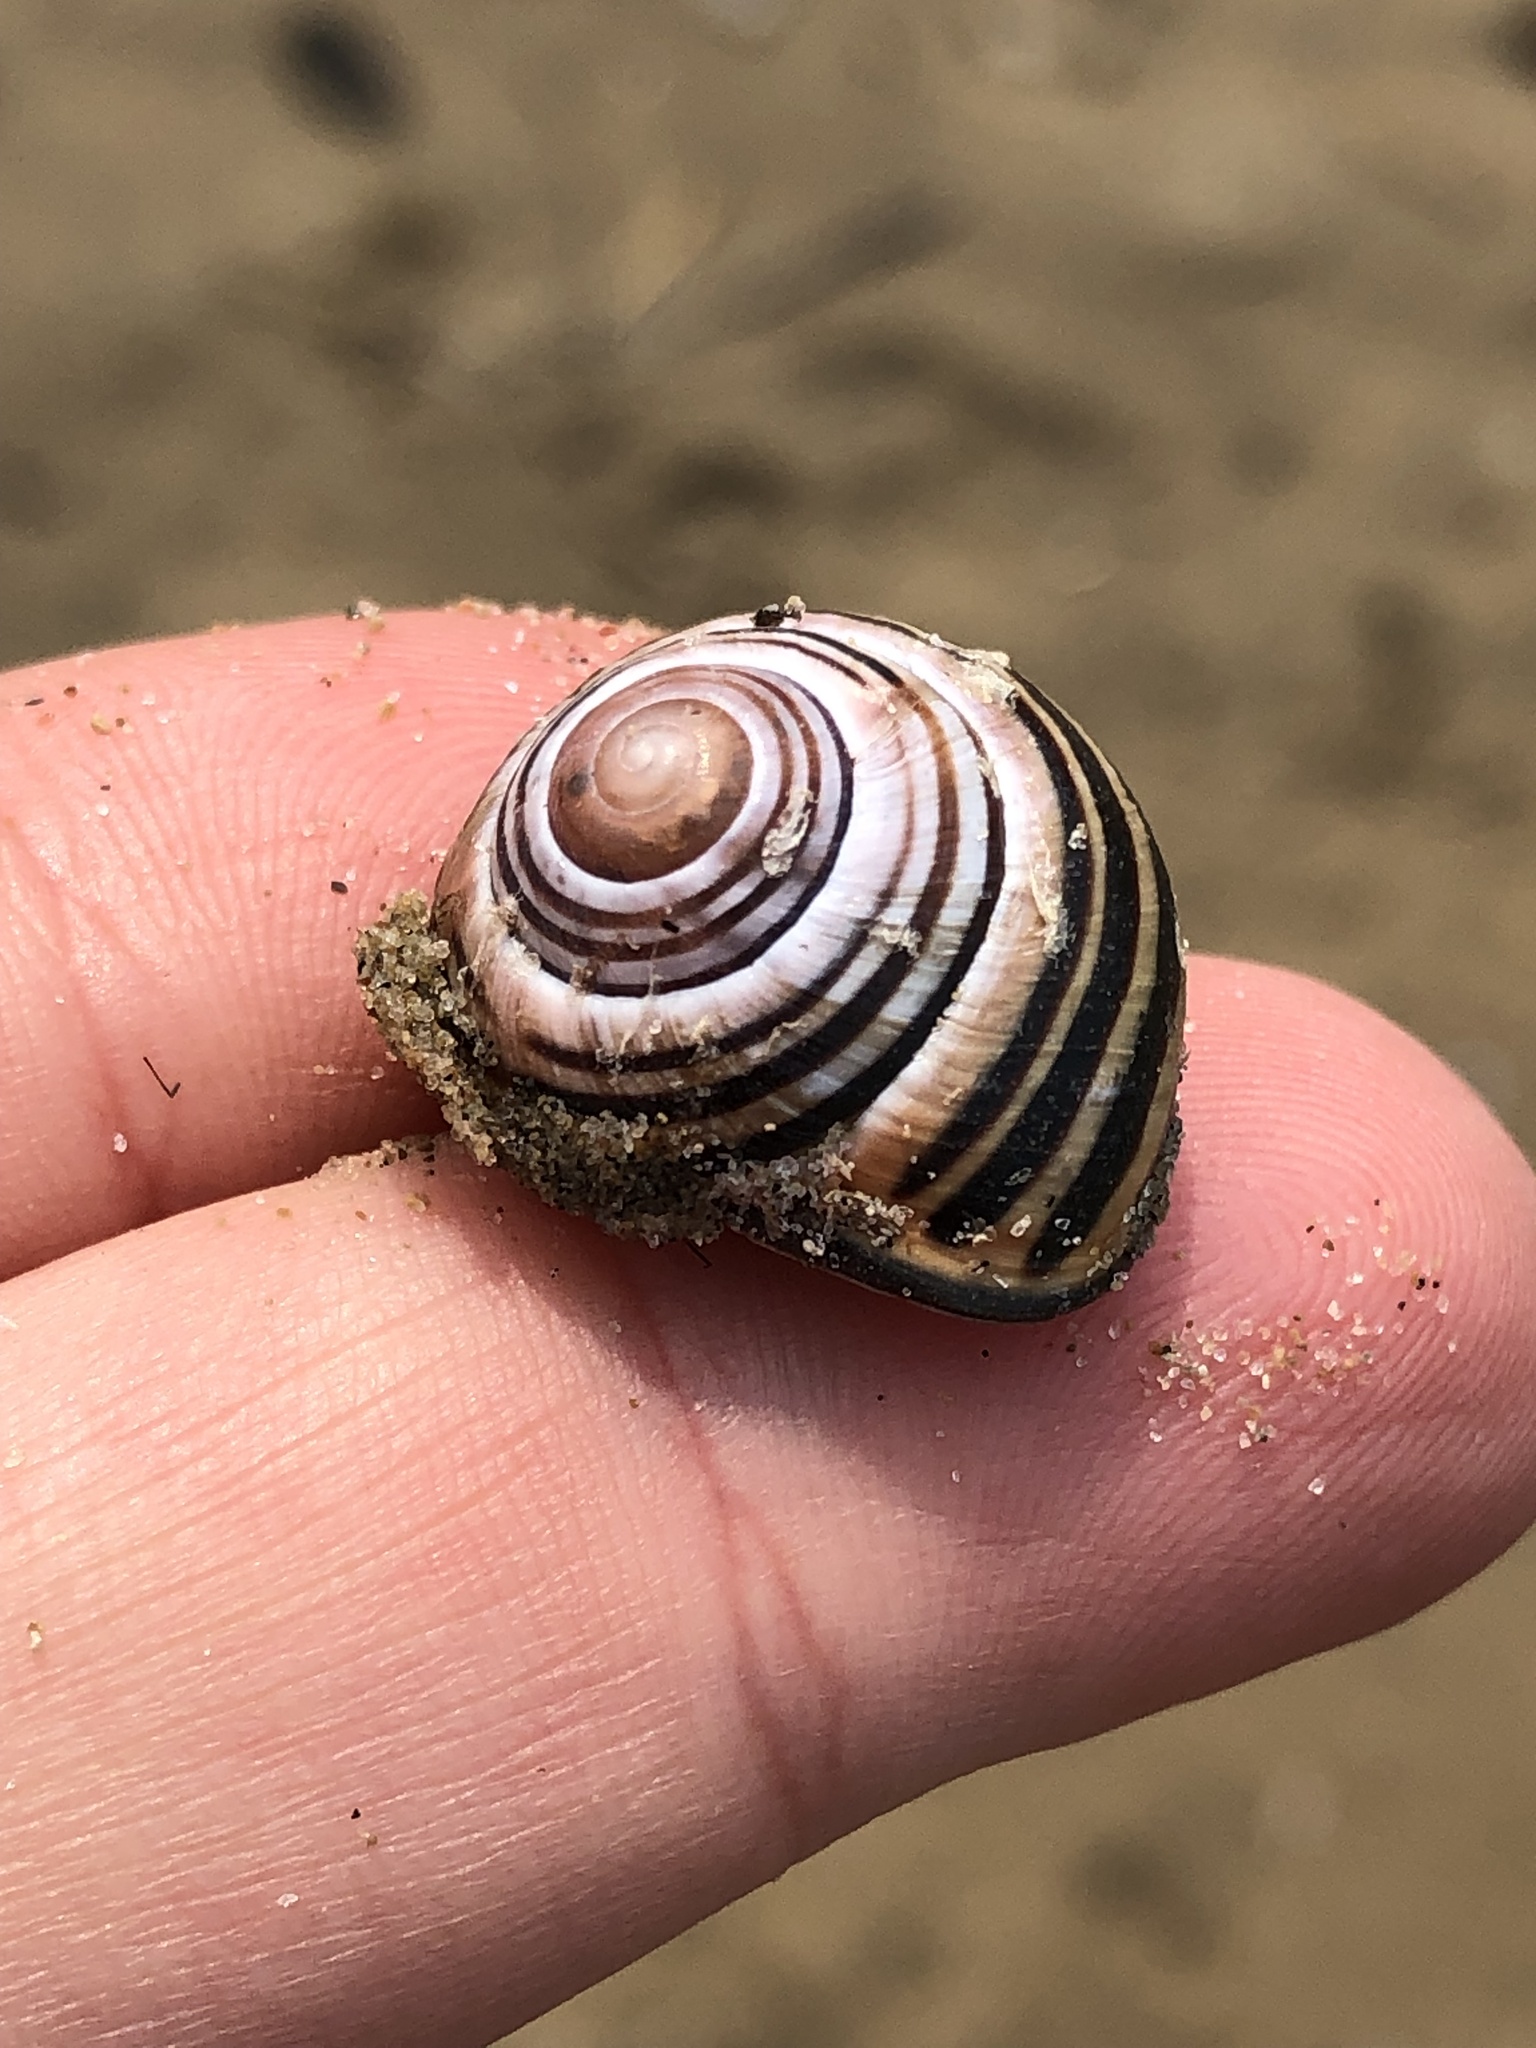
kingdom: Animalia
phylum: Mollusca
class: Gastropoda
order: Stylommatophora
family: Helicidae
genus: Cepaea
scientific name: Cepaea nemoralis
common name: Grovesnail
